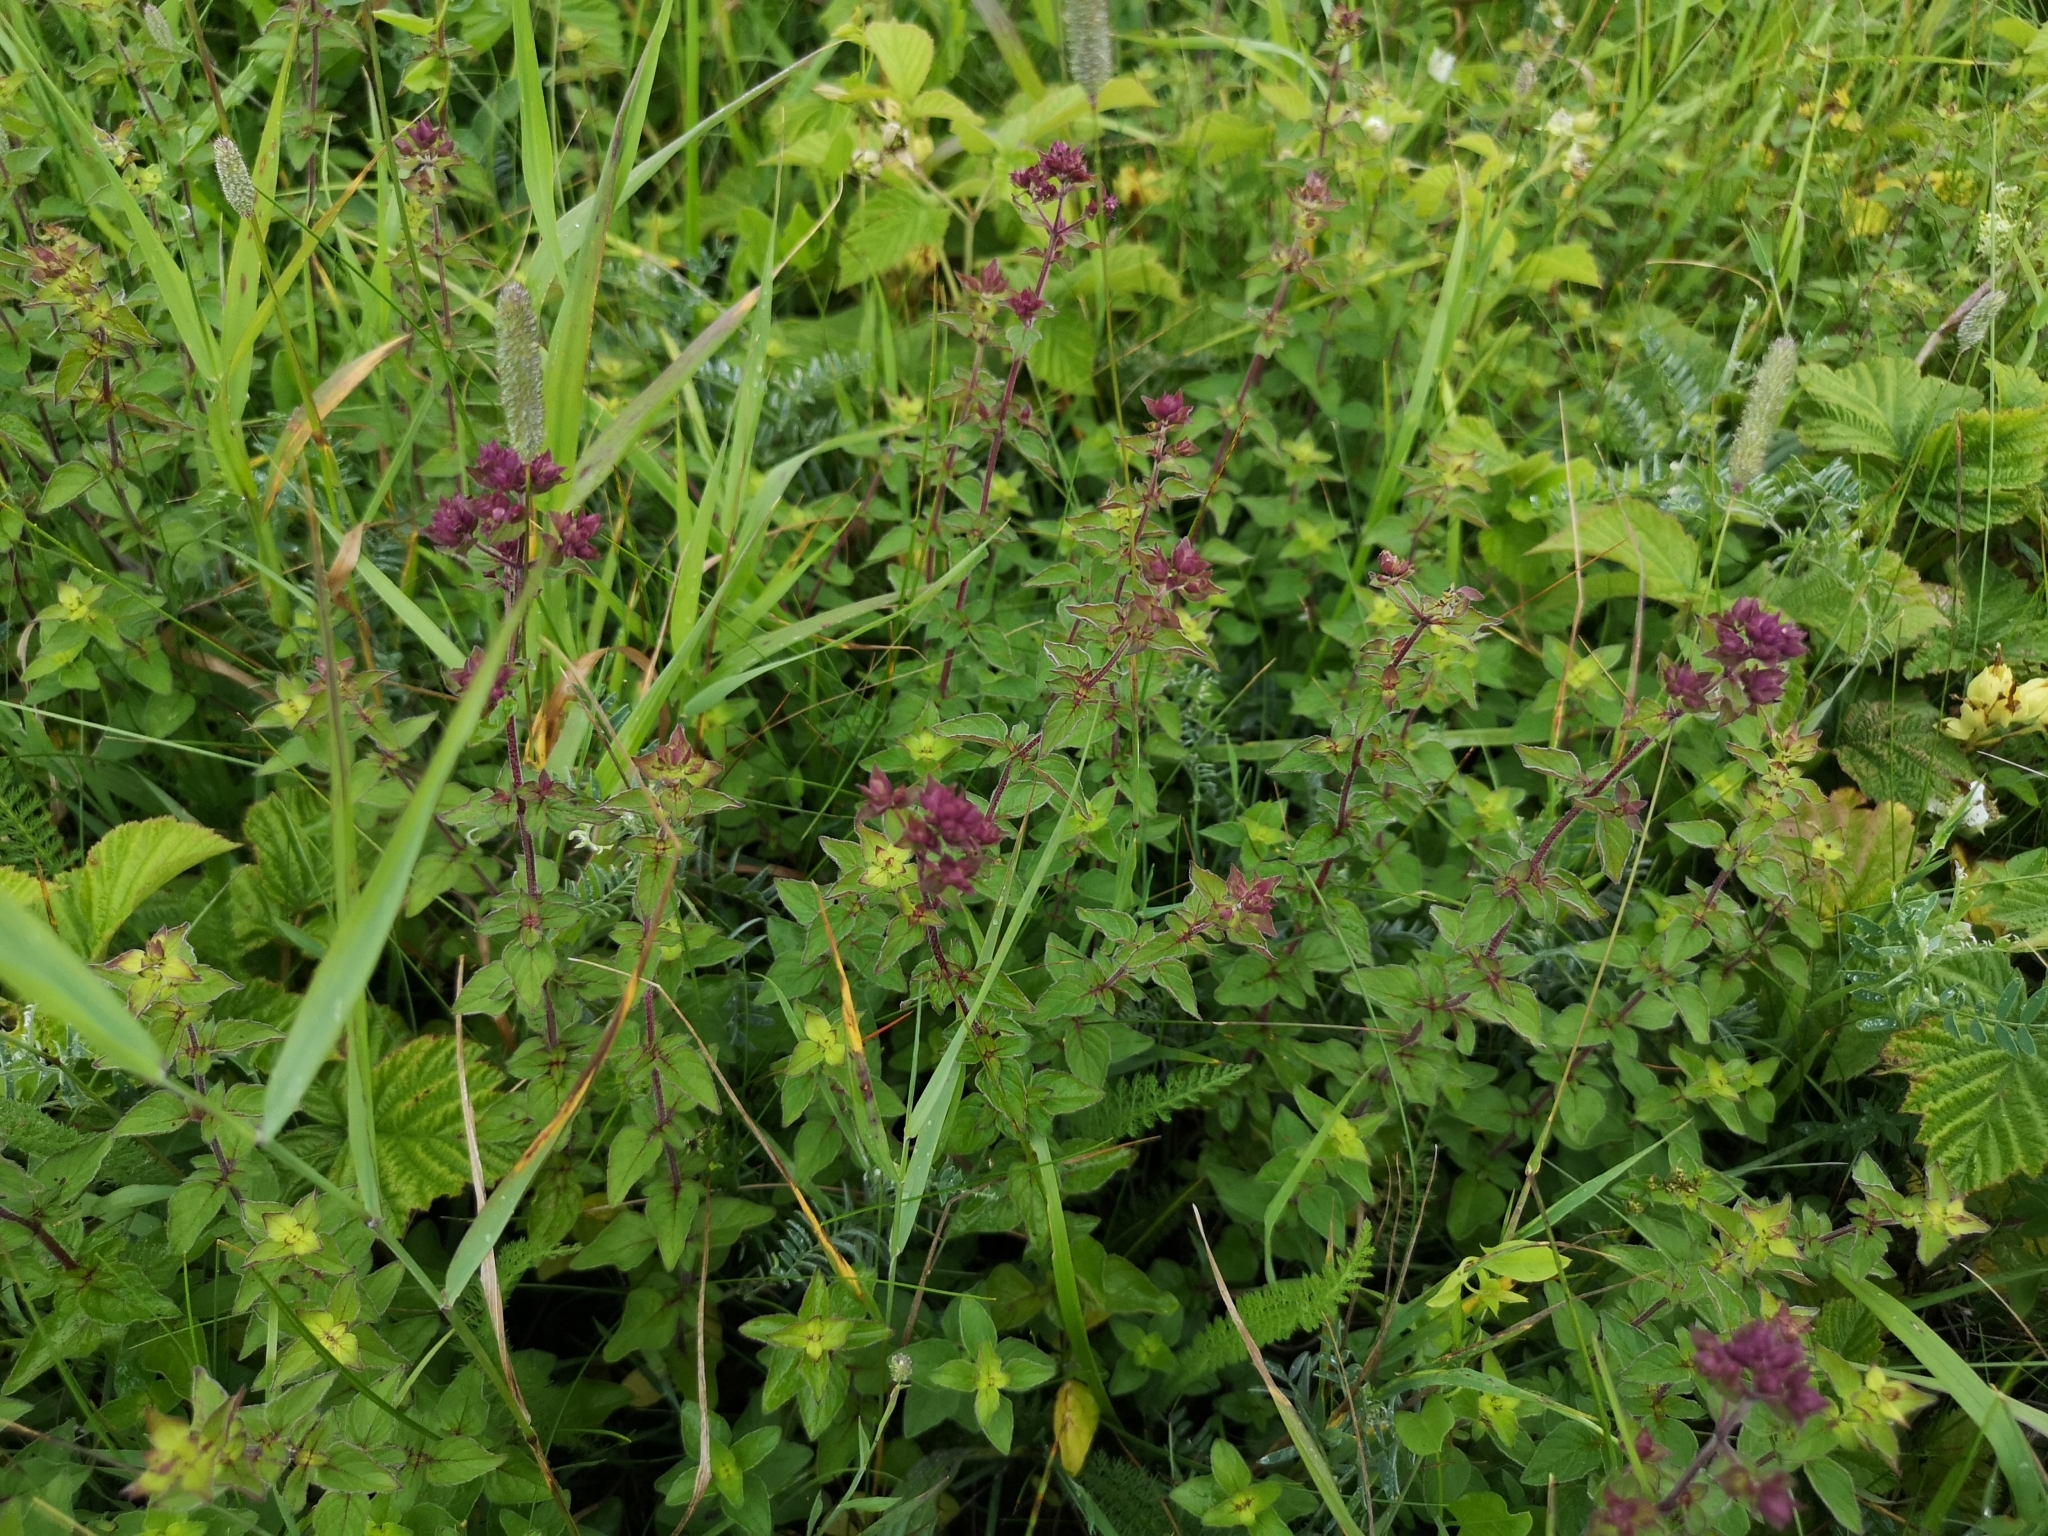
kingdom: Plantae
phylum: Tracheophyta
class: Magnoliopsida
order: Lamiales
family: Lamiaceae
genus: Origanum
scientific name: Origanum vulgare
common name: Wild marjoram
